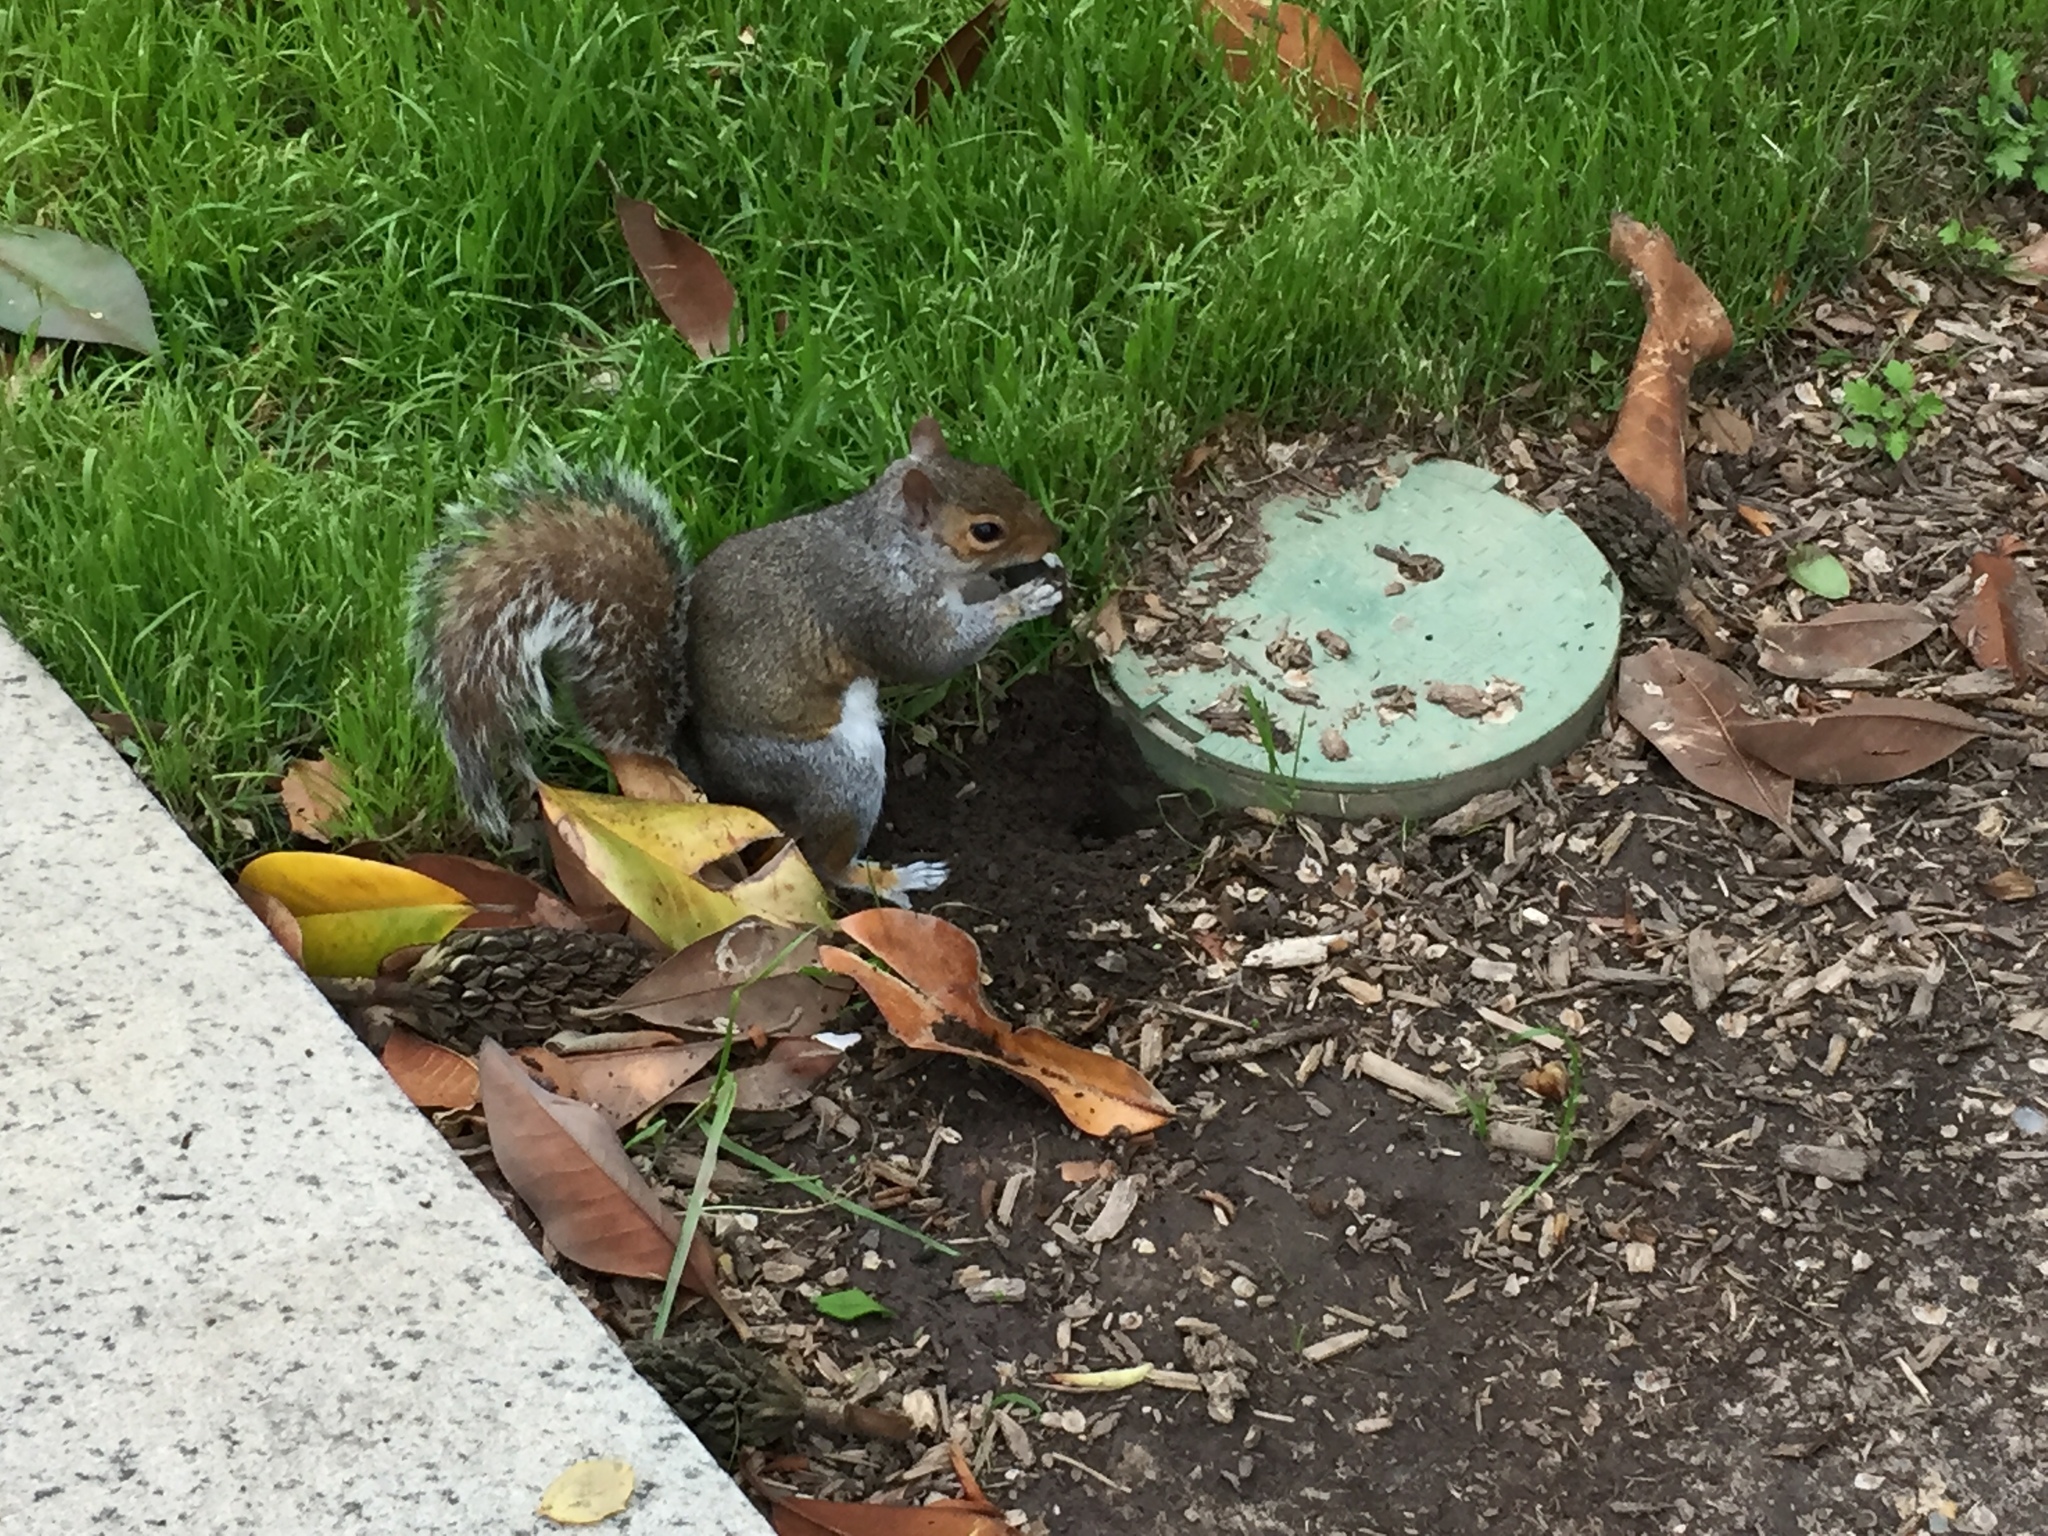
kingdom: Animalia
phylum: Chordata
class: Mammalia
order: Rodentia
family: Sciuridae
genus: Sciurus
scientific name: Sciurus carolinensis
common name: Eastern gray squirrel
